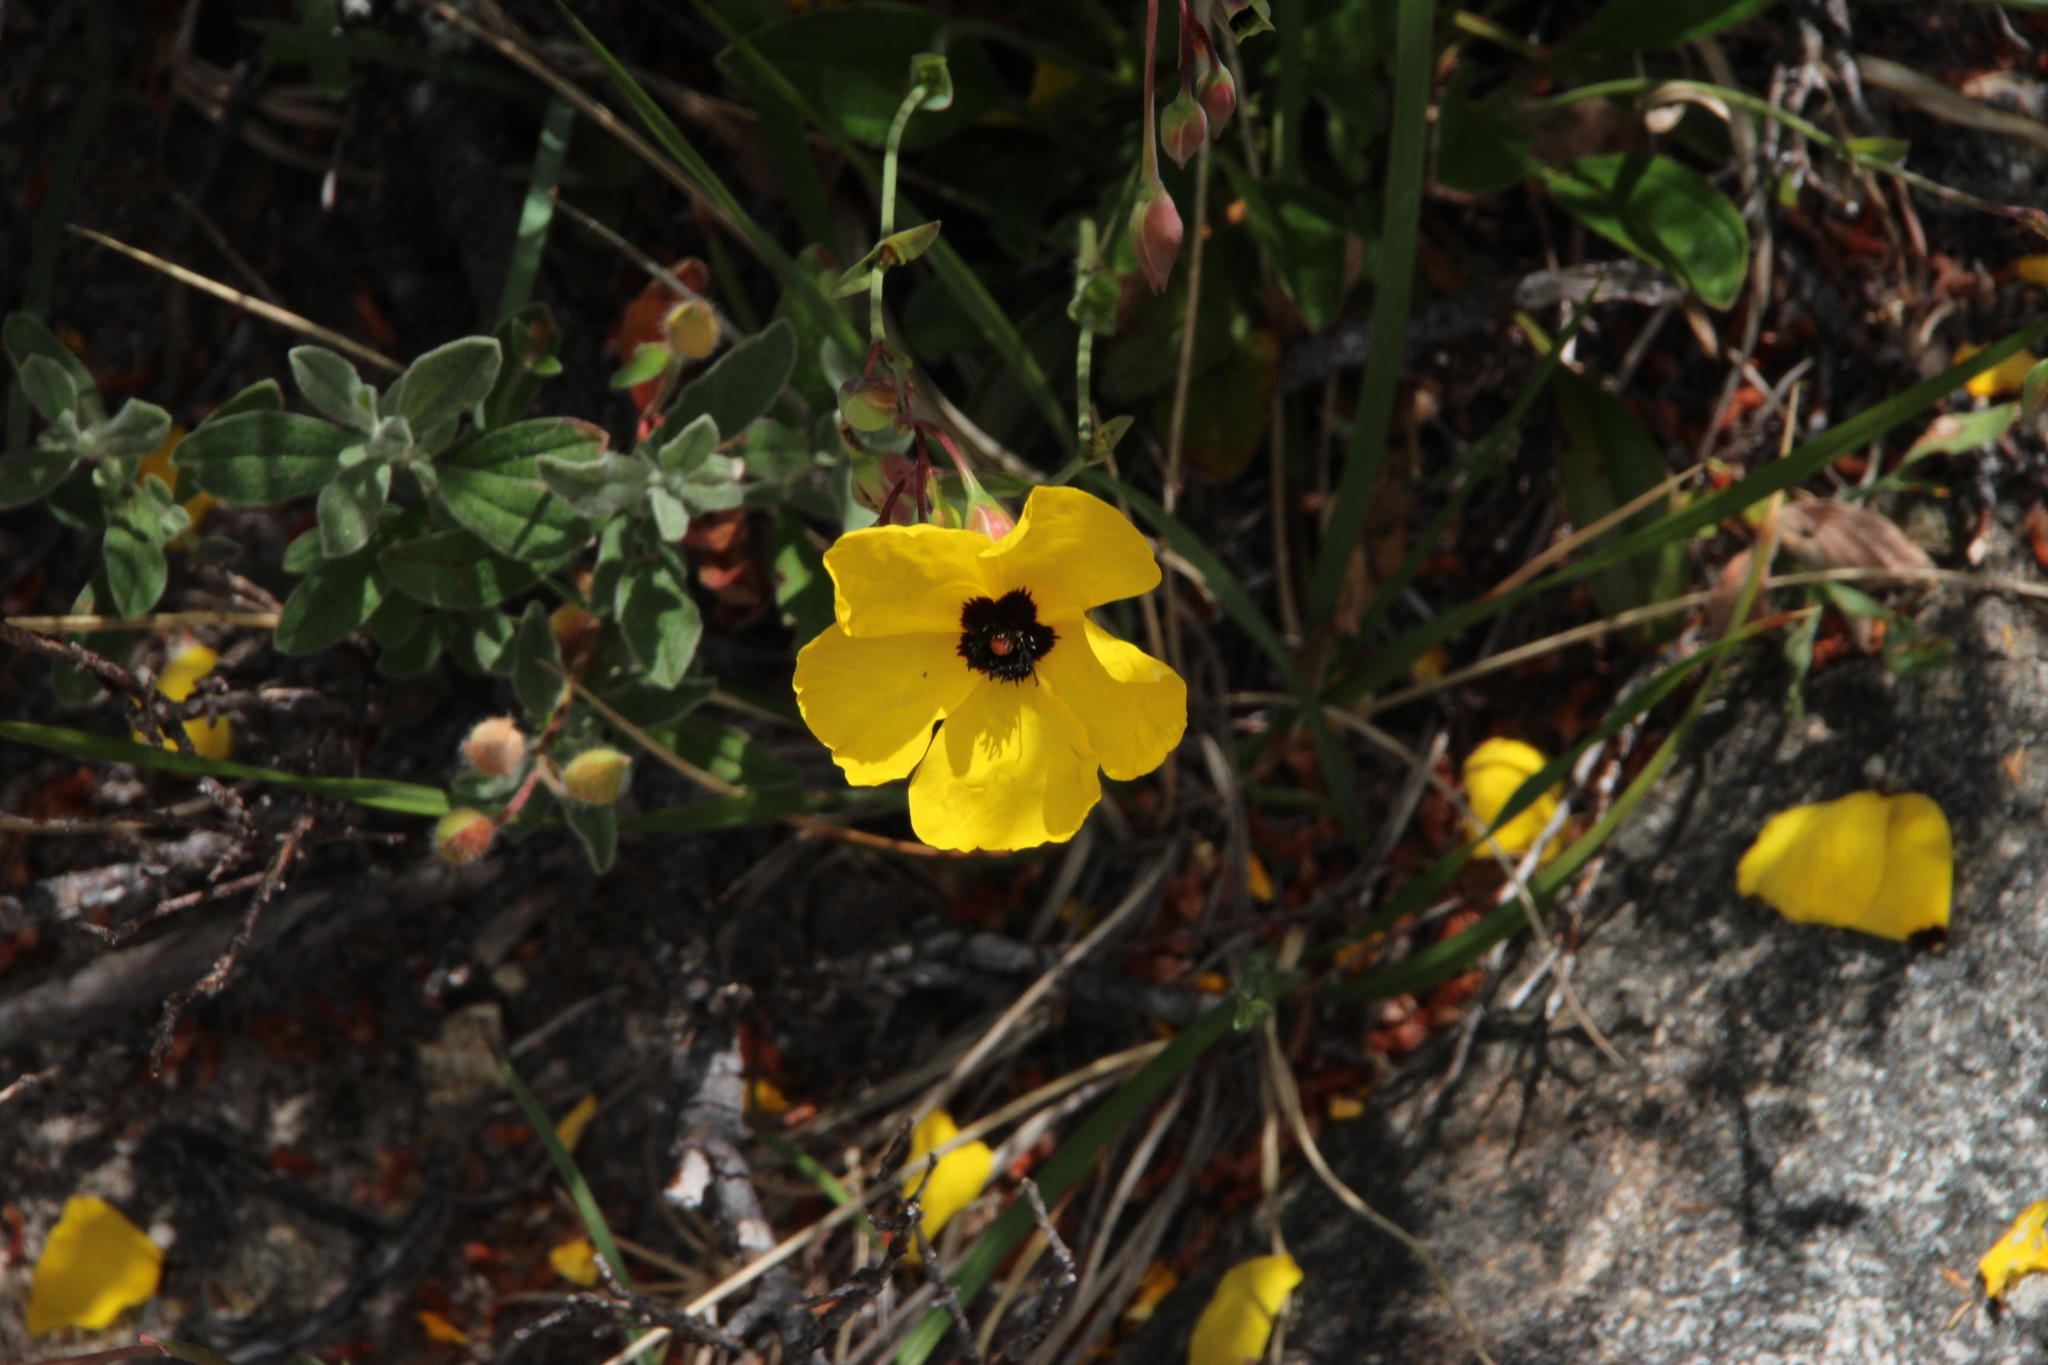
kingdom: Plantae
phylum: Tracheophyta
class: Magnoliopsida
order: Malvales
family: Cistaceae
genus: Tuberaria
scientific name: Tuberaria globulariifolia
